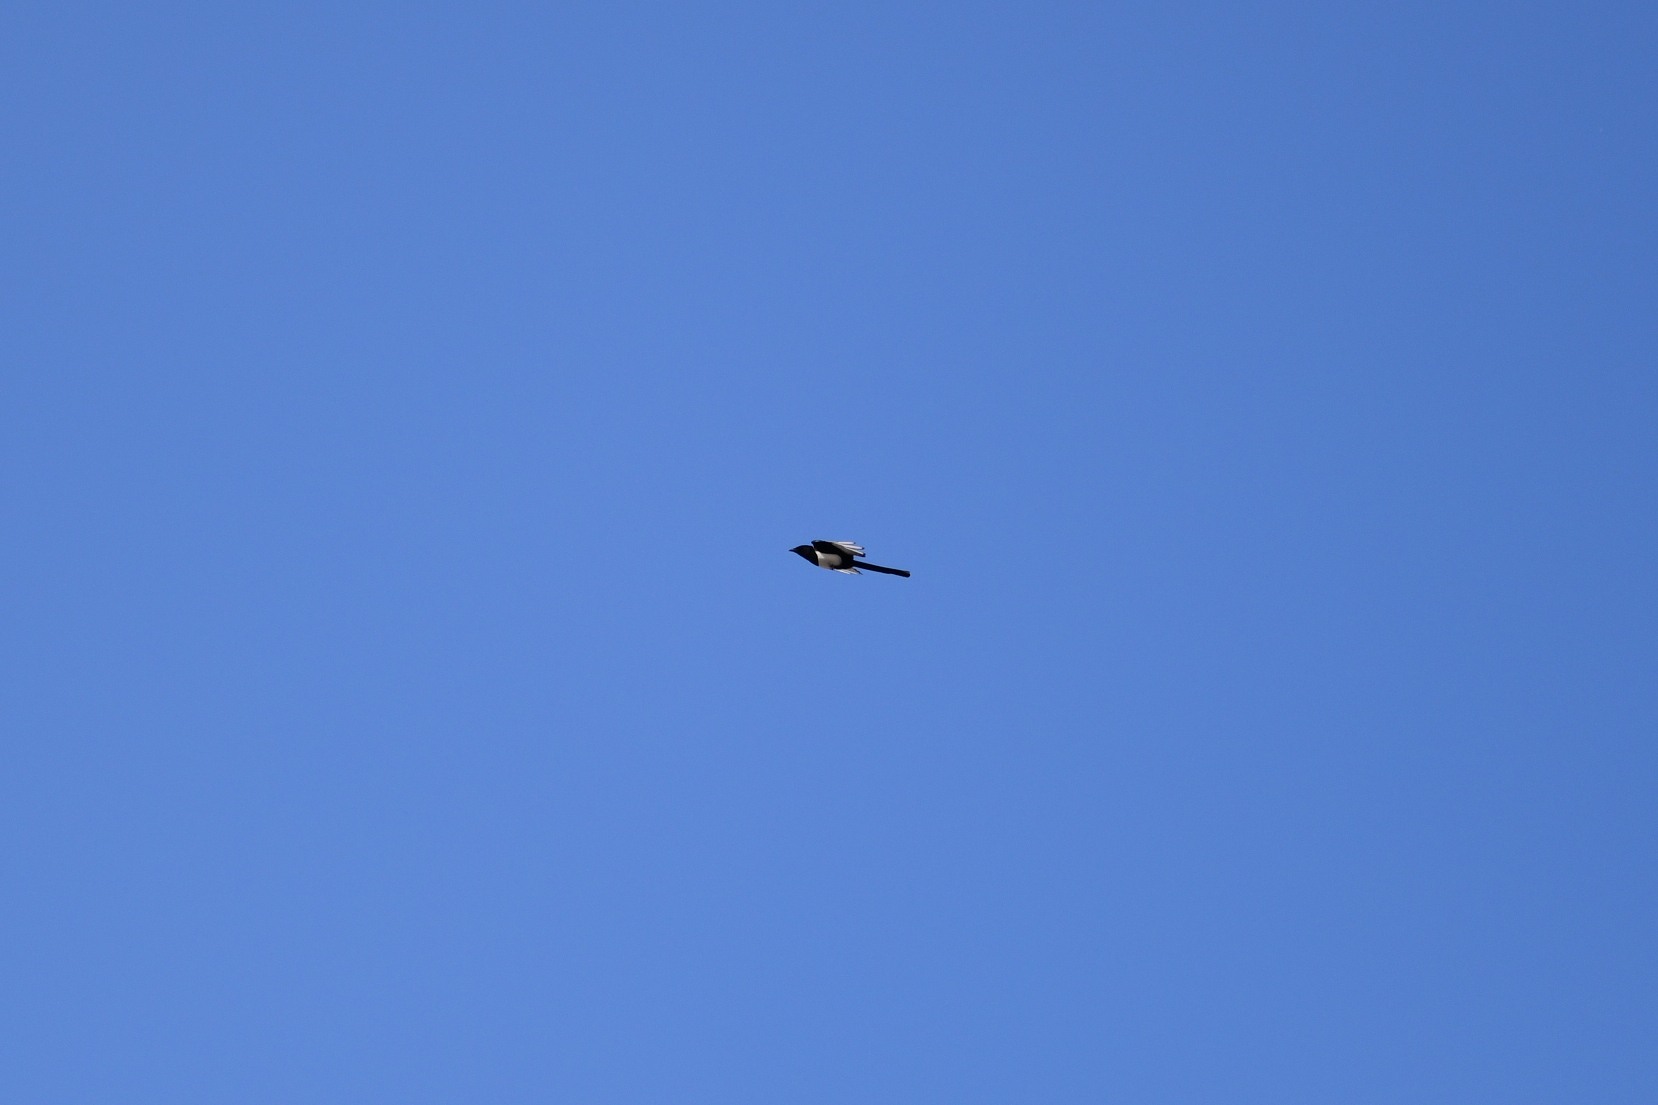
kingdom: Animalia
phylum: Chordata
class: Aves
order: Passeriformes
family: Corvidae
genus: Pica
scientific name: Pica serica
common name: Oriental magpie
